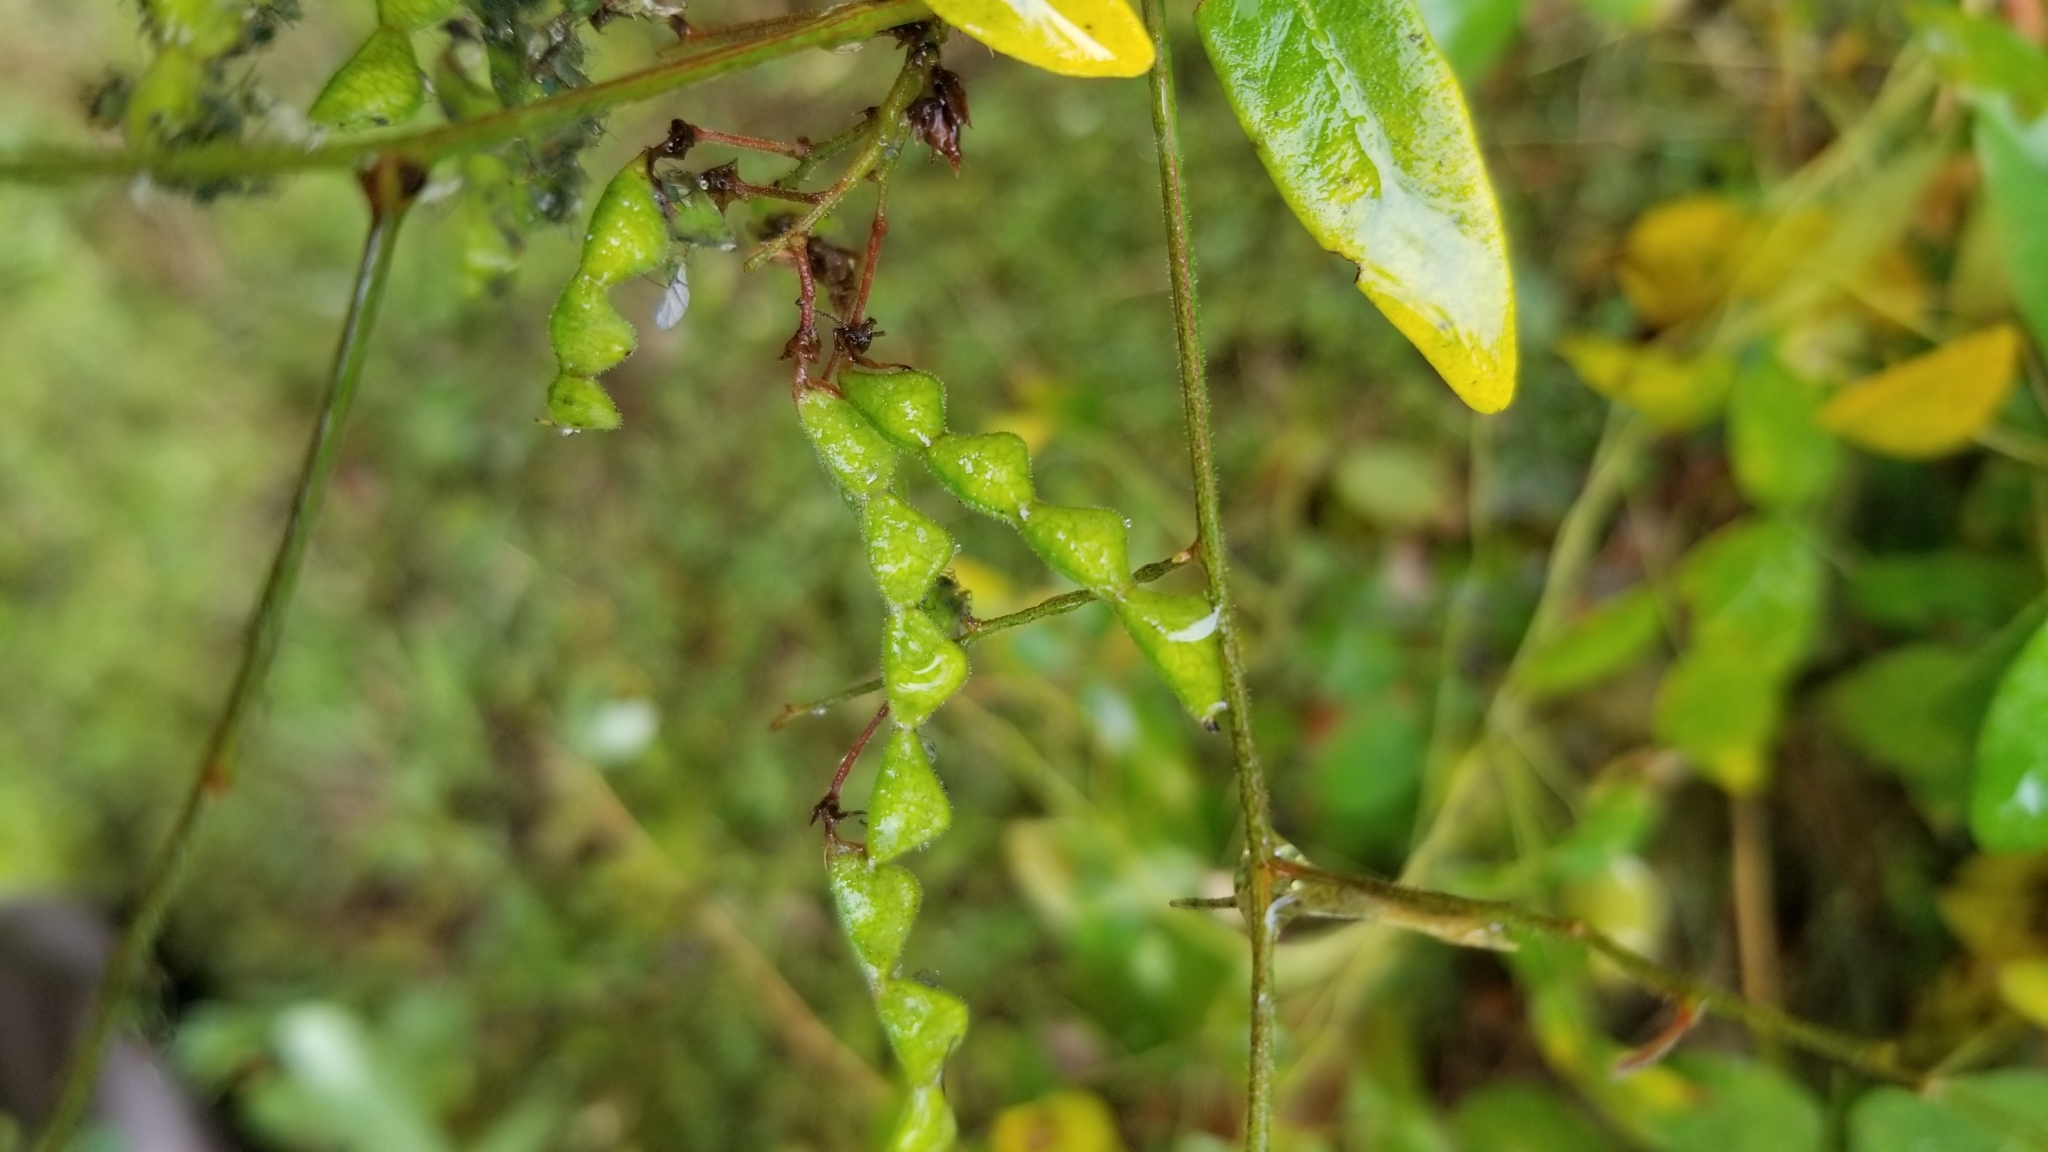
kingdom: Plantae
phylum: Tracheophyta
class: Magnoliopsida
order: Fabales
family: Fabaceae
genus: Desmodium
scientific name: Desmodium paniculatum
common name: Panicled tick-clover
